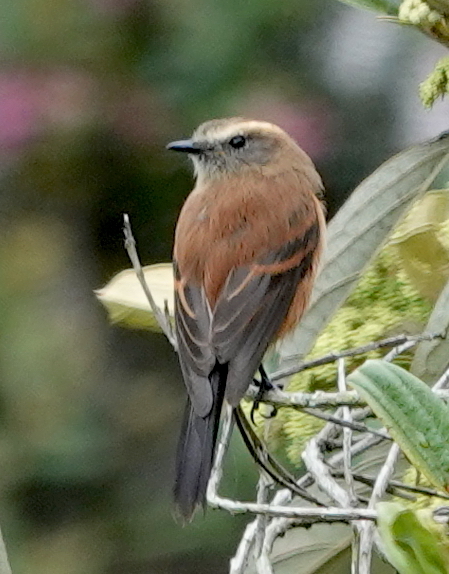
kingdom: Animalia
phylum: Chordata
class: Aves
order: Passeriformes
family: Tyrannidae
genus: Ochthoeca
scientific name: Ochthoeca fumicolor
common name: Brown-backed chat-tyrant
